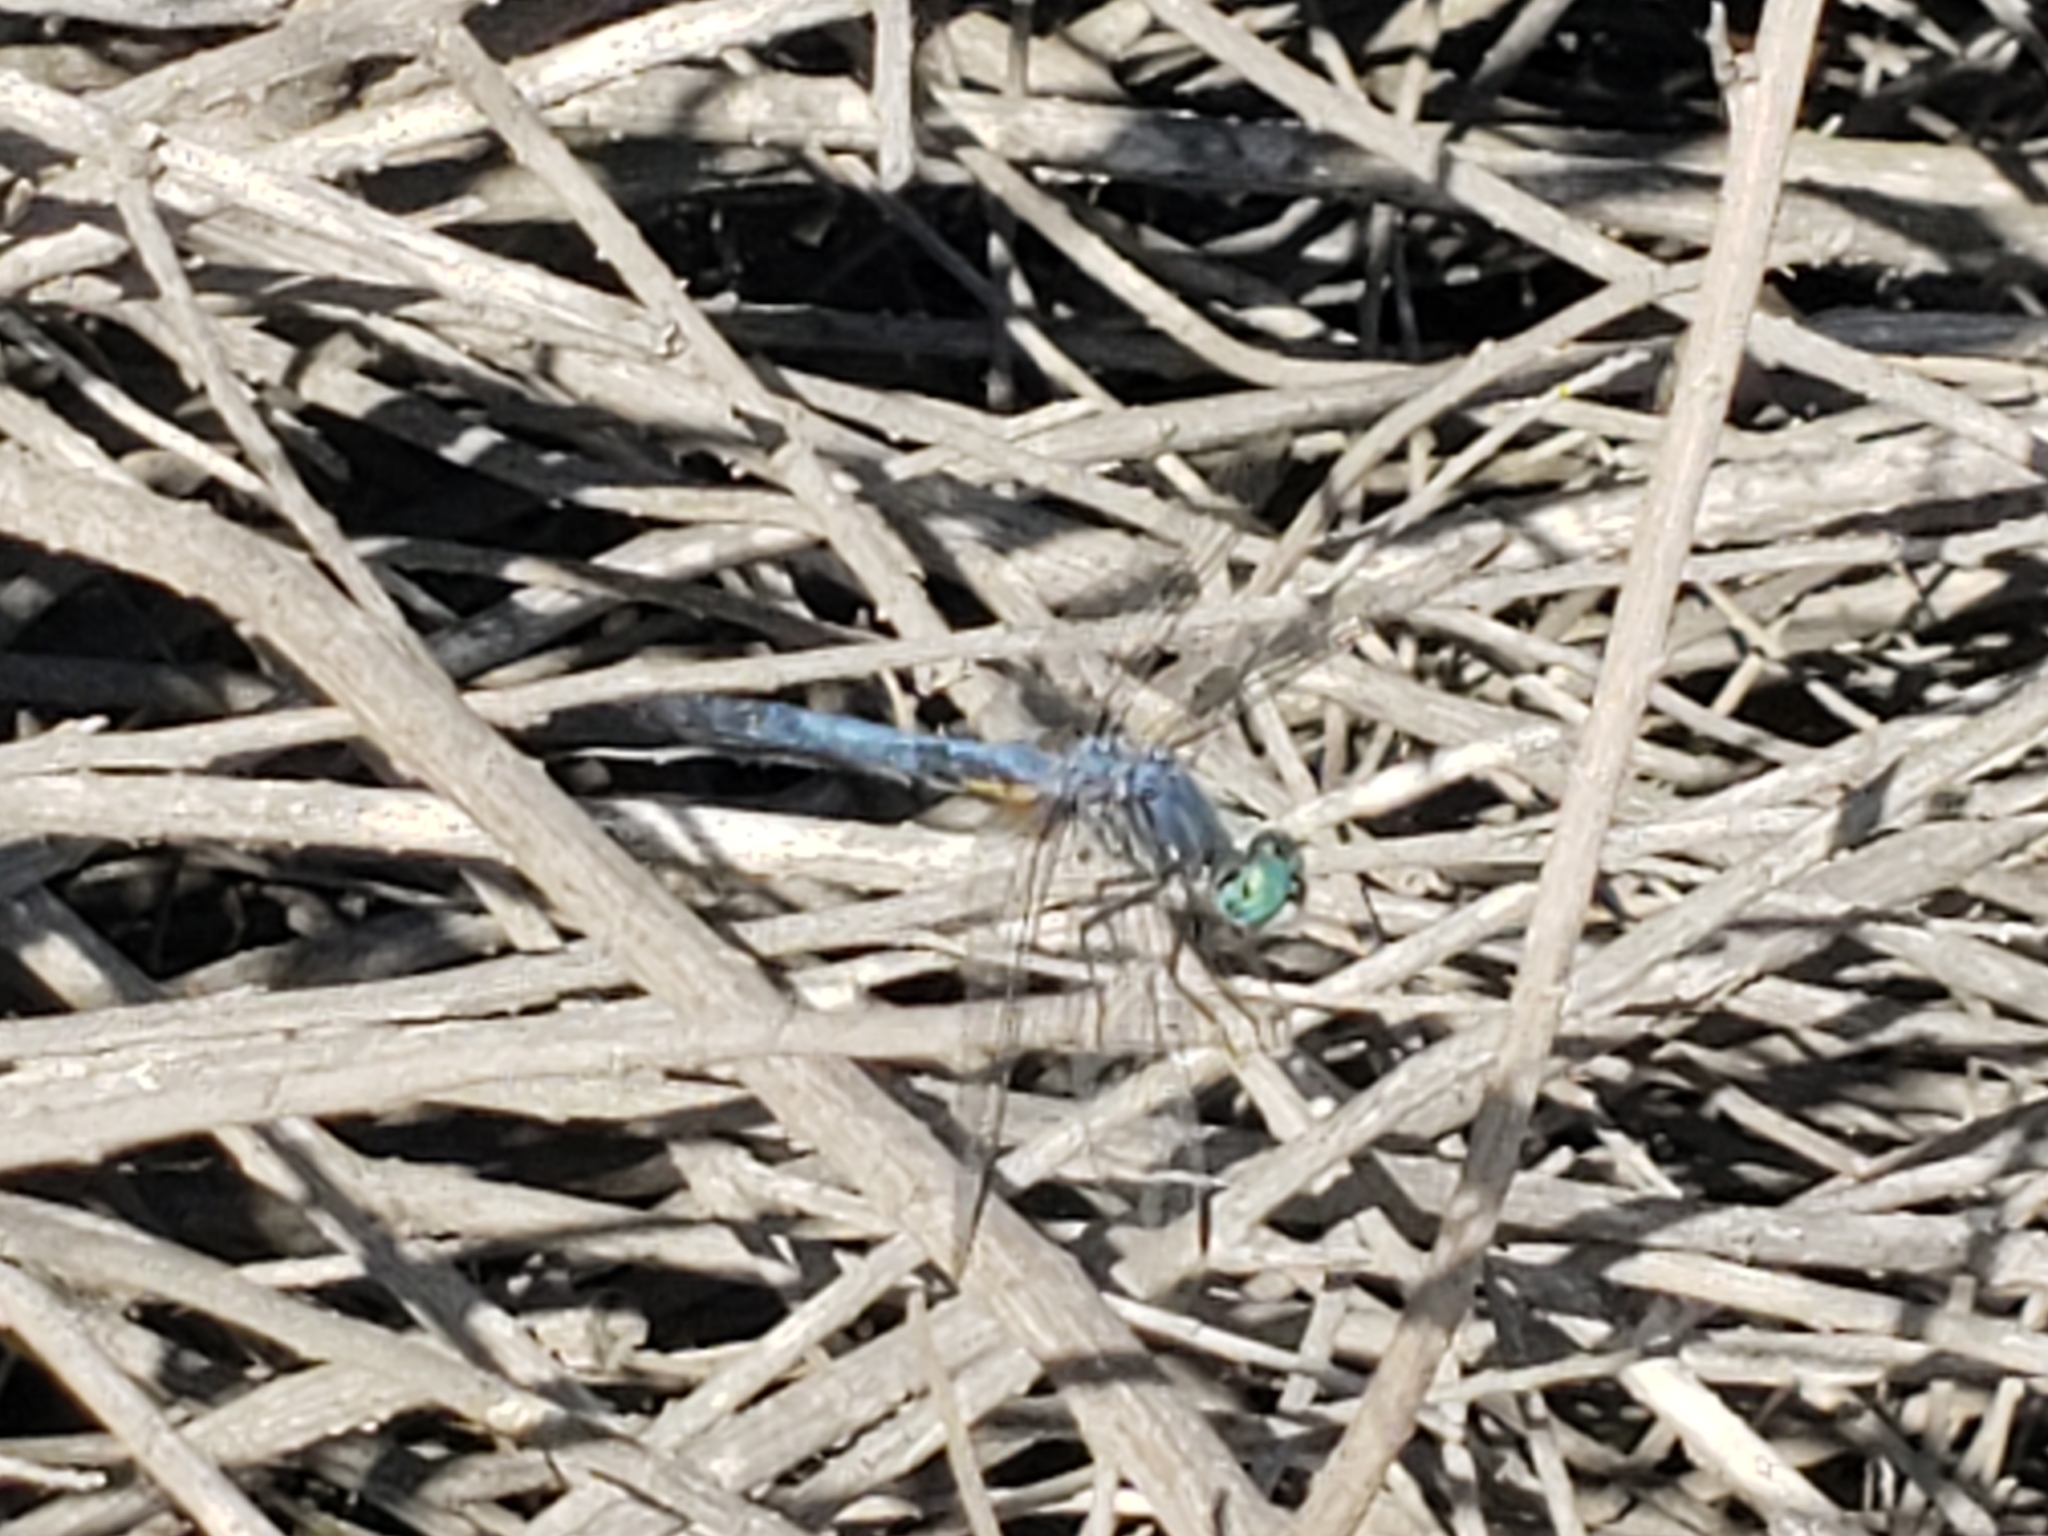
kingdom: Animalia
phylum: Arthropoda
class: Insecta
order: Odonata
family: Libellulidae
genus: Pachydiplax
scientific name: Pachydiplax longipennis
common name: Blue dasher
